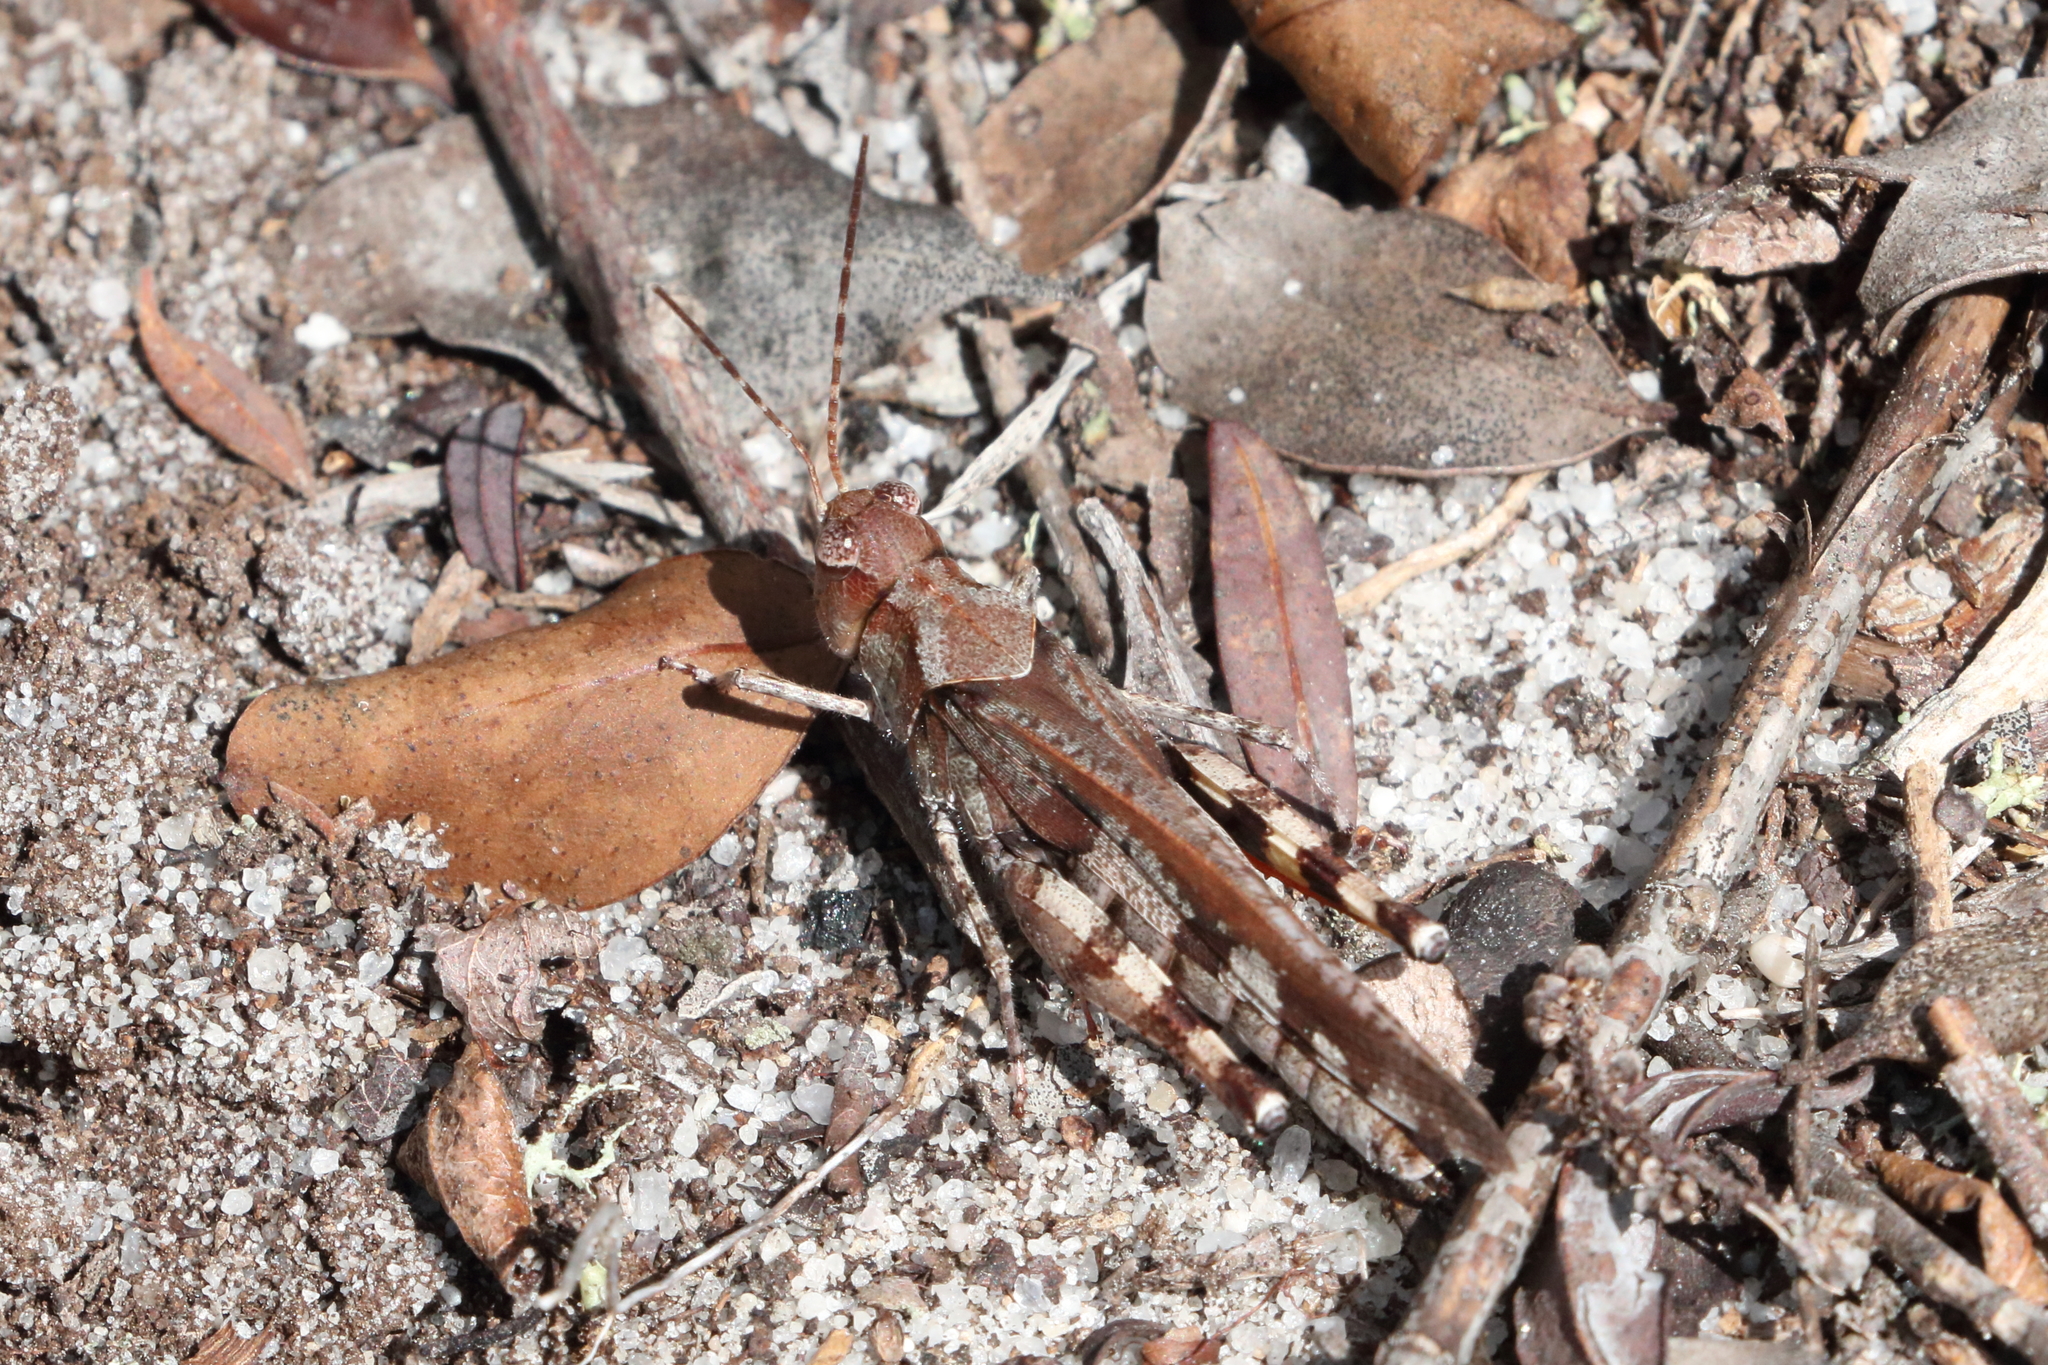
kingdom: Animalia
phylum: Arthropoda
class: Insecta
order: Orthoptera
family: Acrididae
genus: Spharagemon
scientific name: Spharagemon marmoratum
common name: Marbled grasshopper
